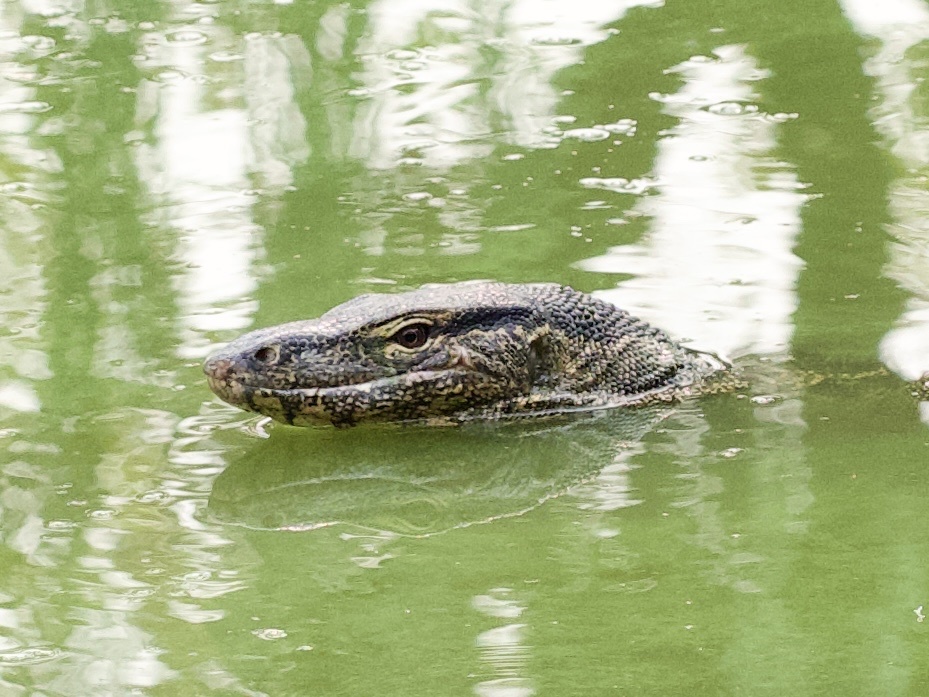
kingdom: Animalia
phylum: Chordata
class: Squamata
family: Varanidae
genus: Varanus
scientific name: Varanus salvator
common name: Common water monitor
